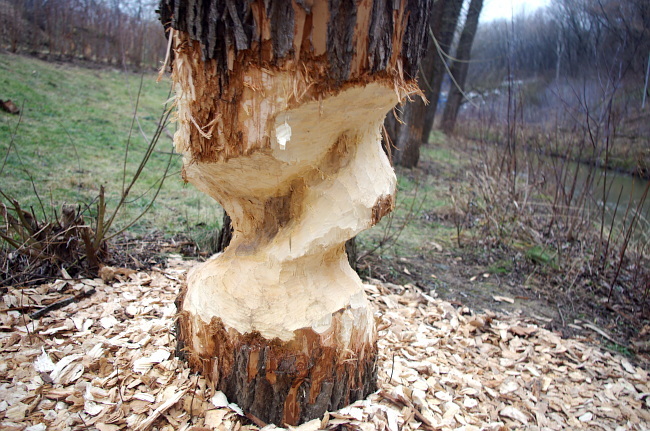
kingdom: Animalia
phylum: Chordata
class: Mammalia
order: Rodentia
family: Castoridae
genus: Castor
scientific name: Castor fiber
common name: Eurasian beaver
